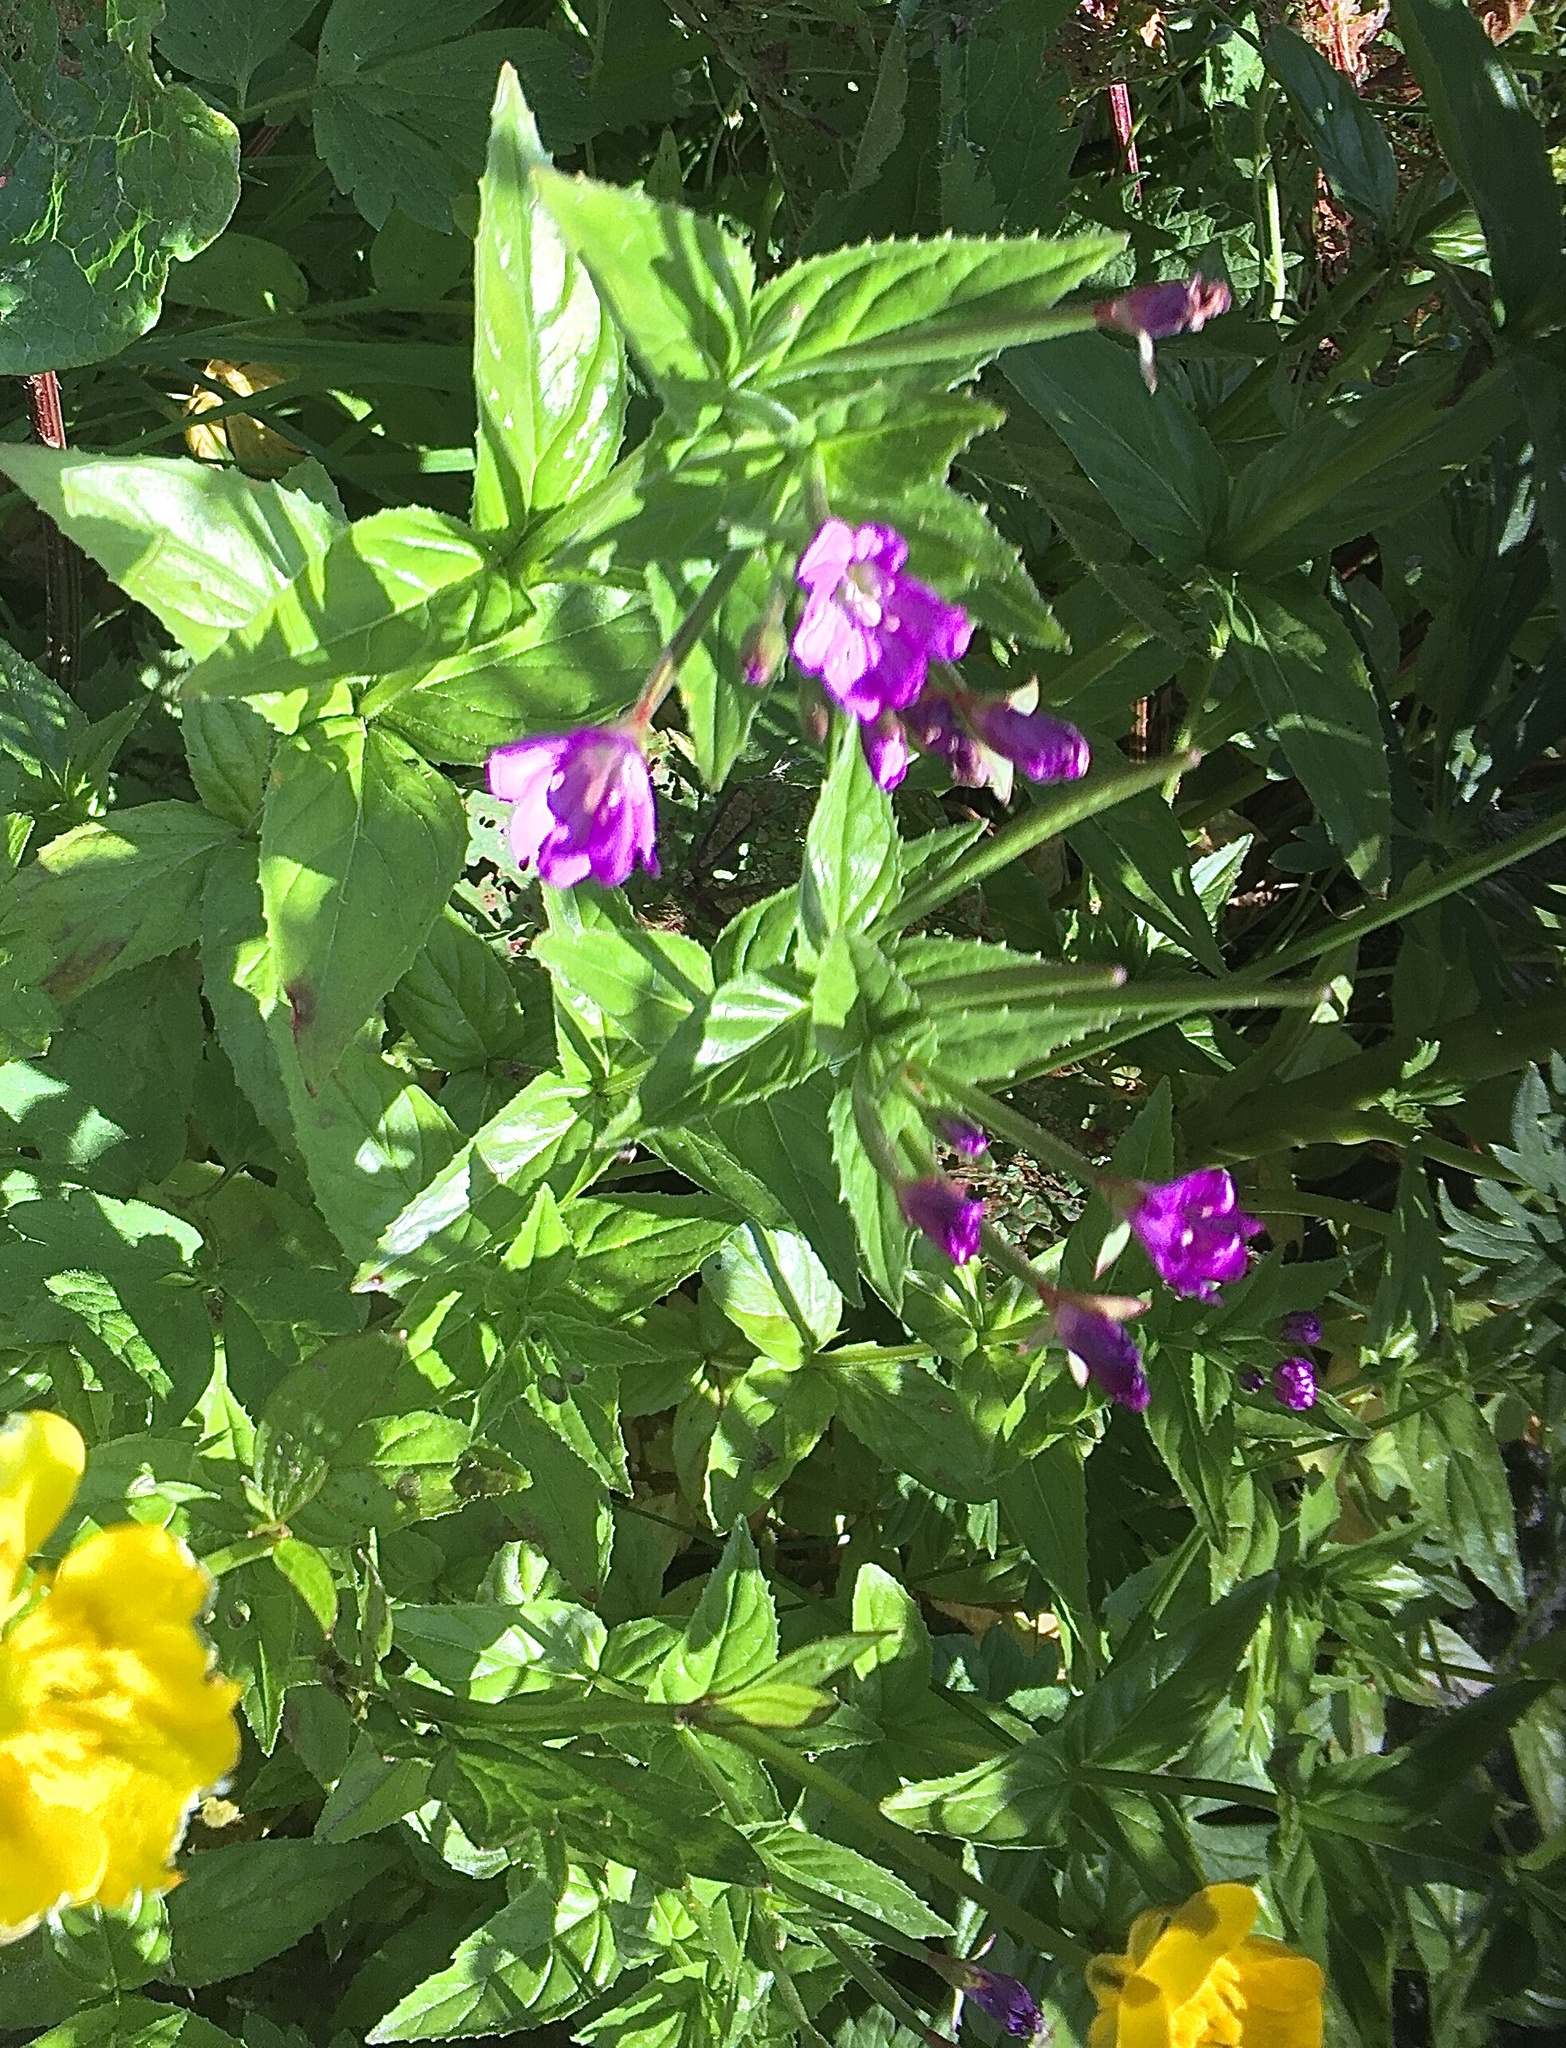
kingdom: Plantae
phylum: Tracheophyta
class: Magnoliopsida
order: Myrtales
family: Onagraceae
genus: Epilobium
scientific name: Epilobium alpestre
